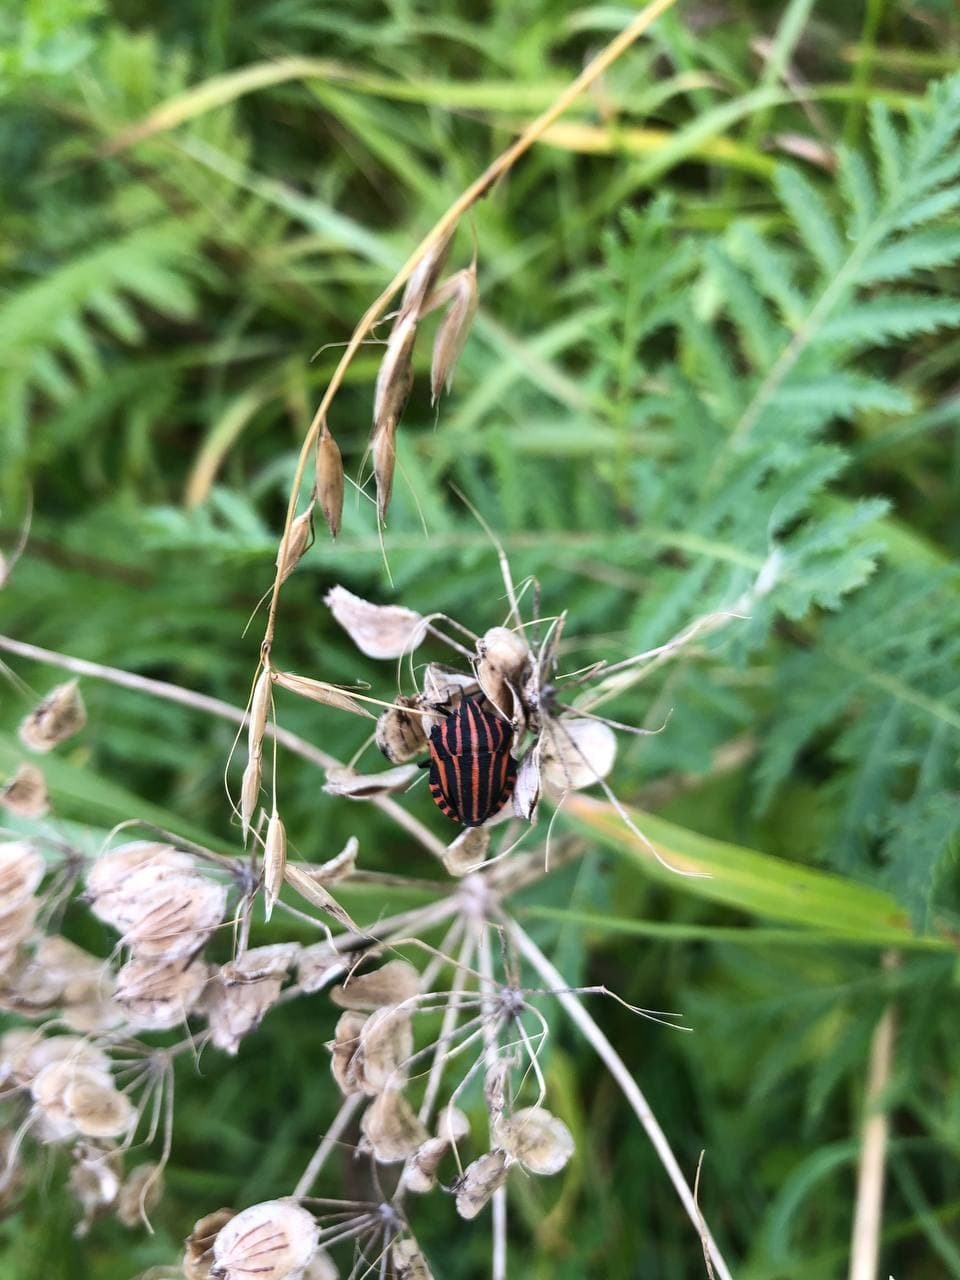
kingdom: Animalia
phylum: Arthropoda
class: Insecta
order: Hemiptera
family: Pentatomidae
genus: Graphosoma
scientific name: Graphosoma italicum
